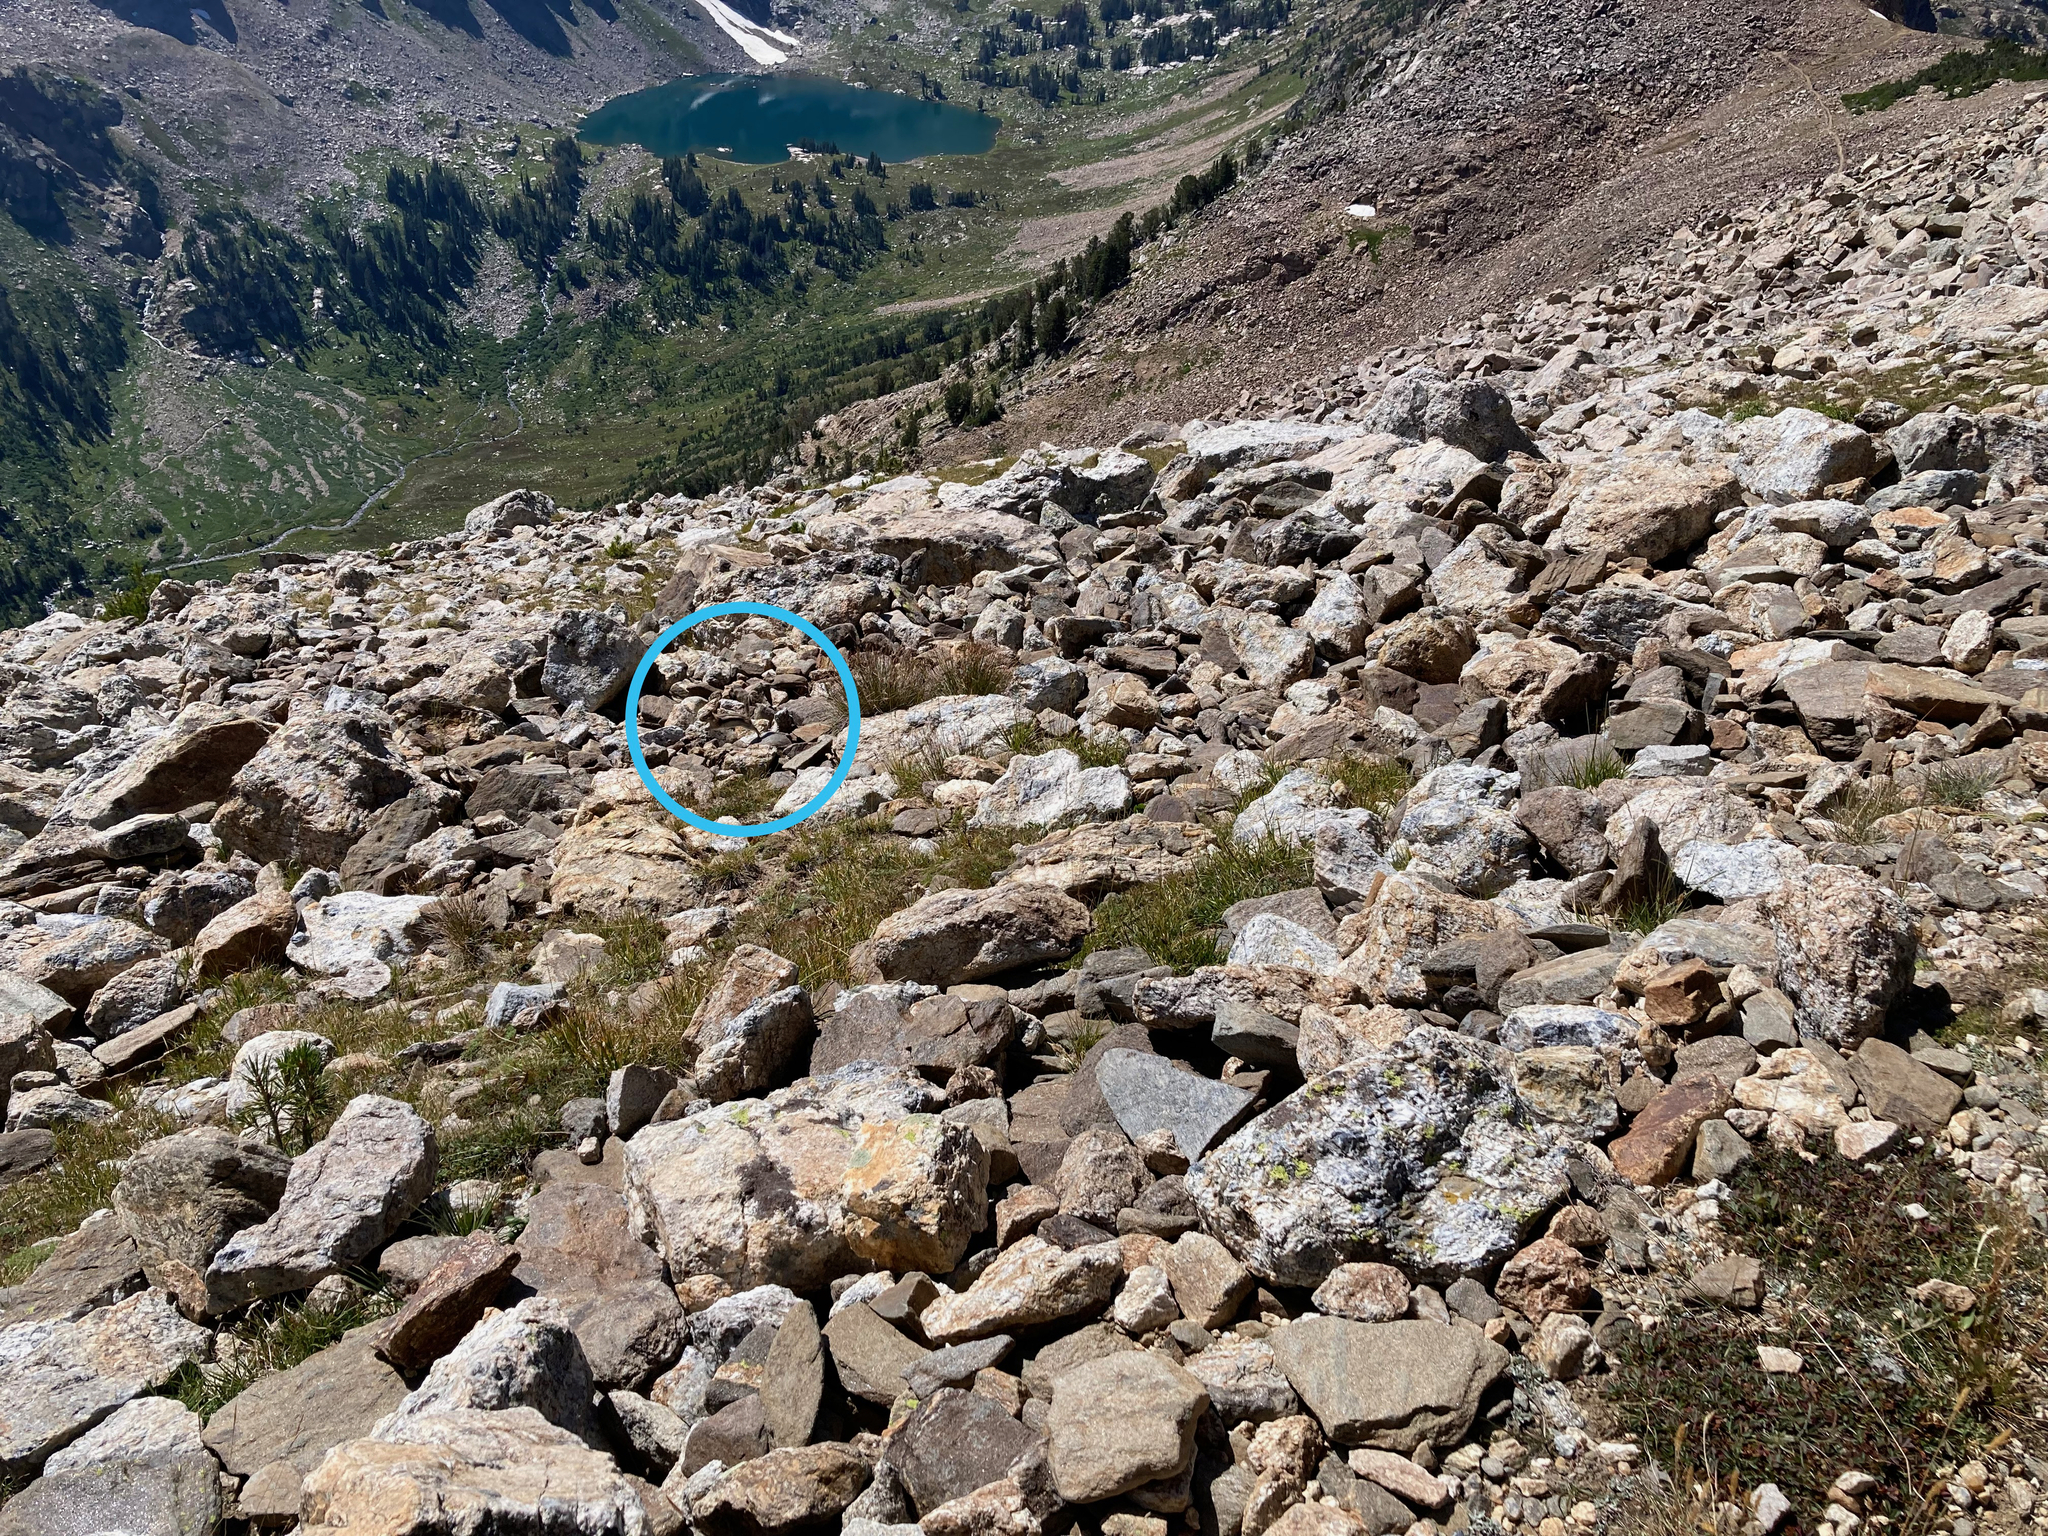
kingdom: Animalia
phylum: Chordata
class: Mammalia
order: Rodentia
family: Sciuridae
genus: Callospermophilus
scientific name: Callospermophilus lateralis
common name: Golden-mantled ground squirrel
